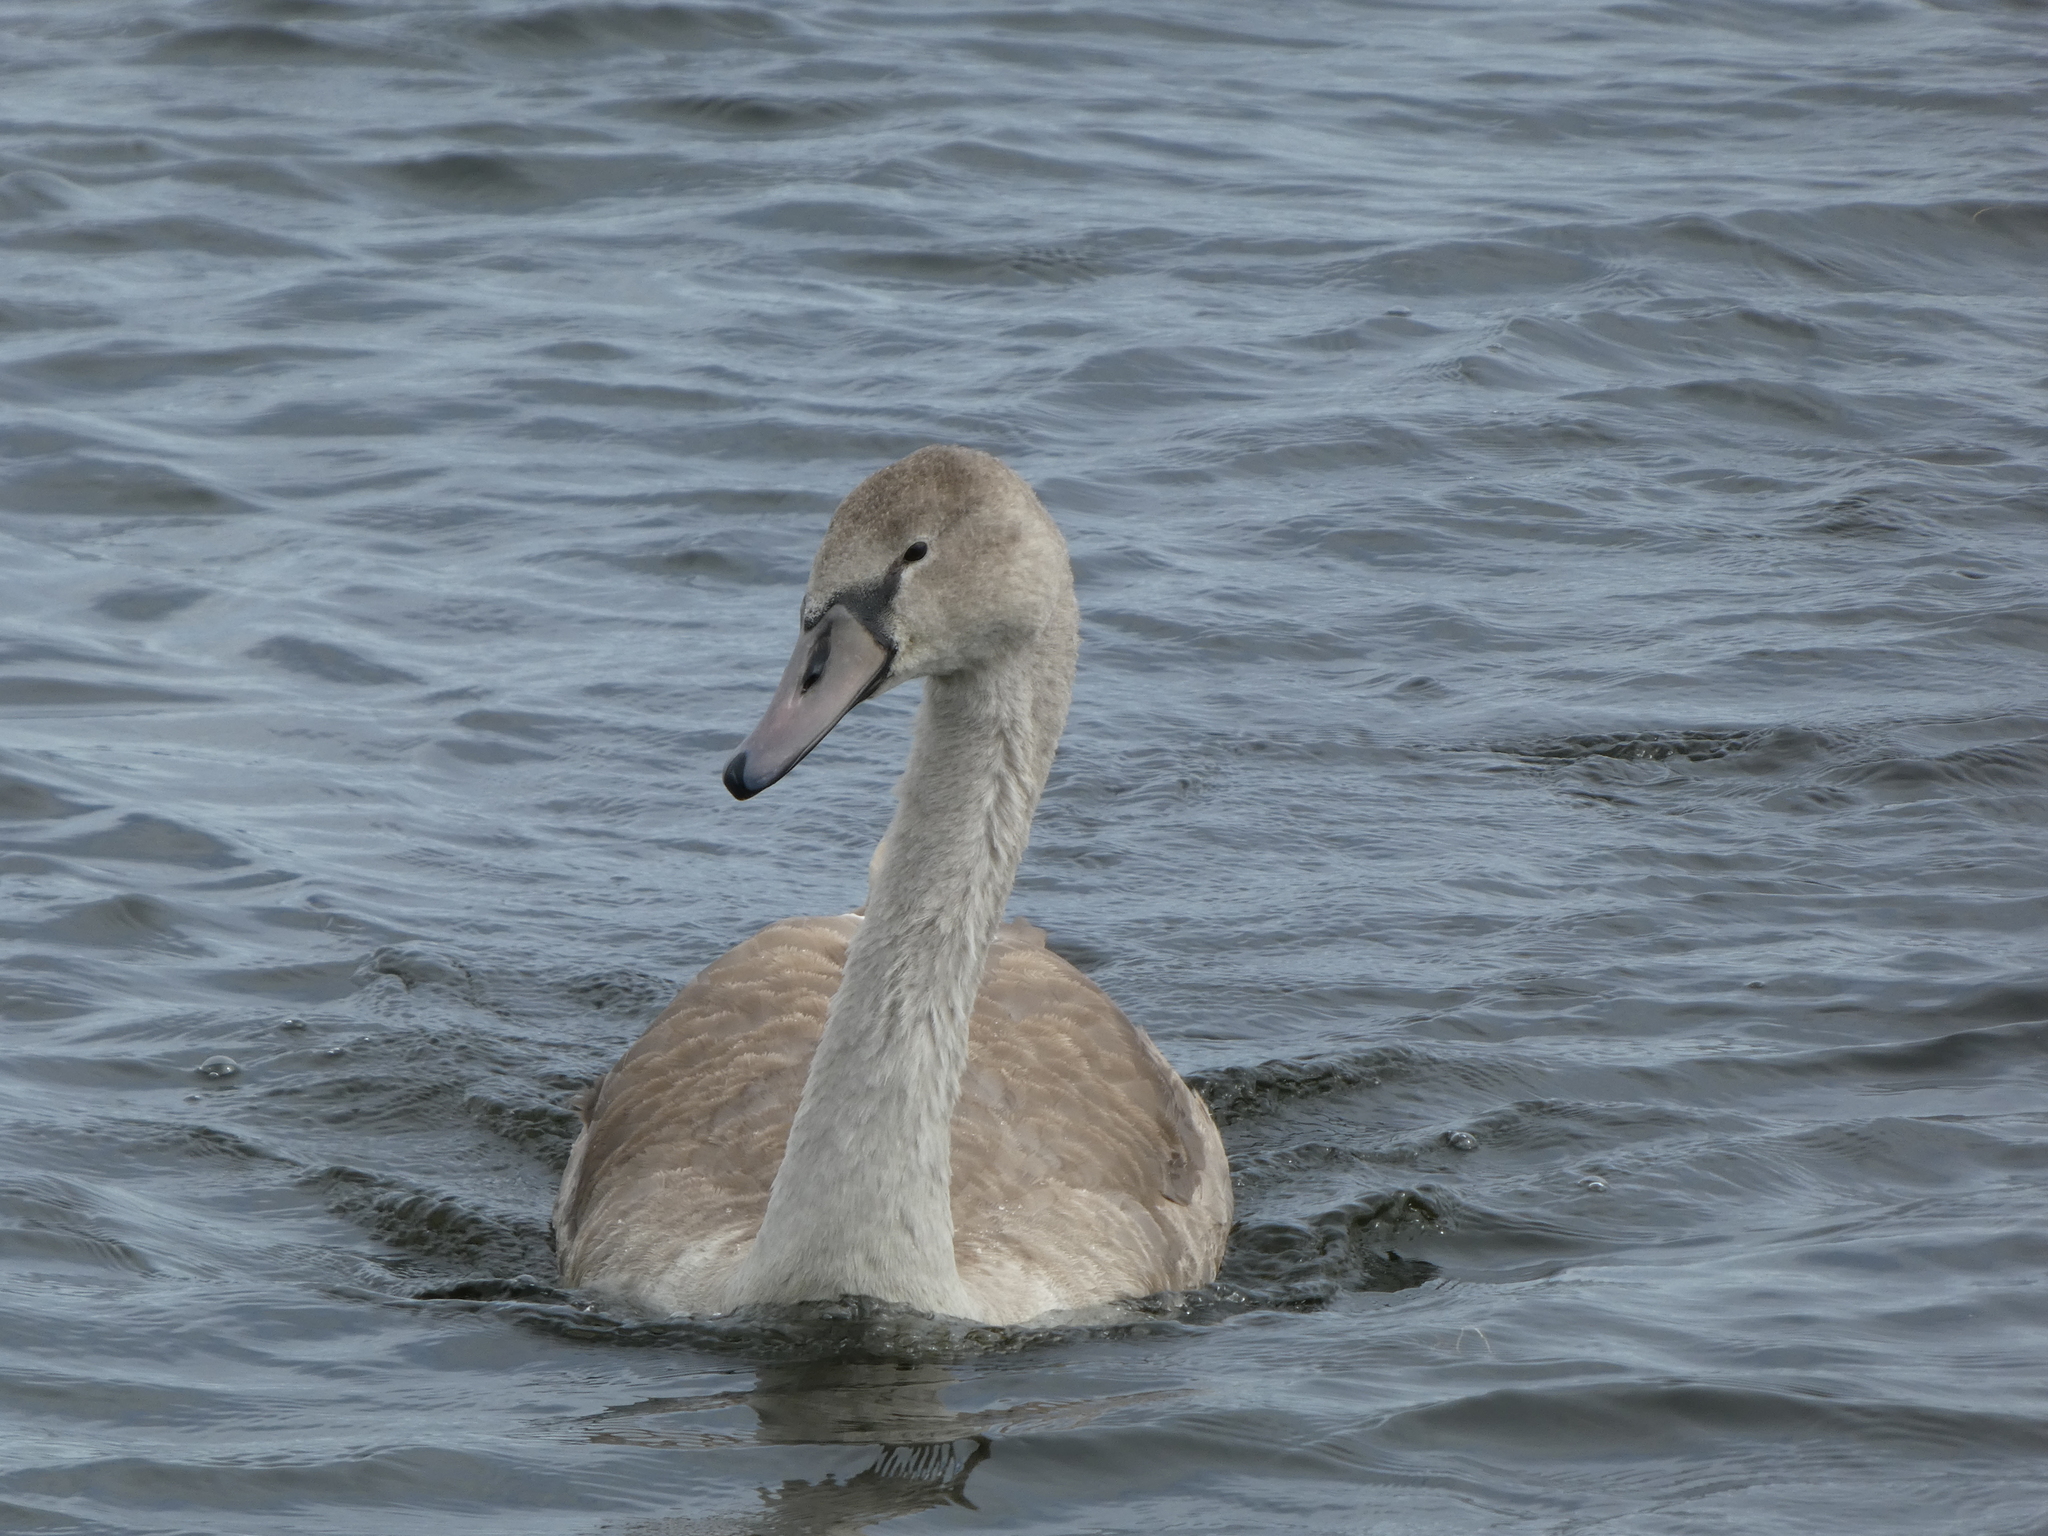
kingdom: Animalia
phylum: Chordata
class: Aves
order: Anseriformes
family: Anatidae
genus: Cygnus
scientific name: Cygnus olor
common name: Mute swan
